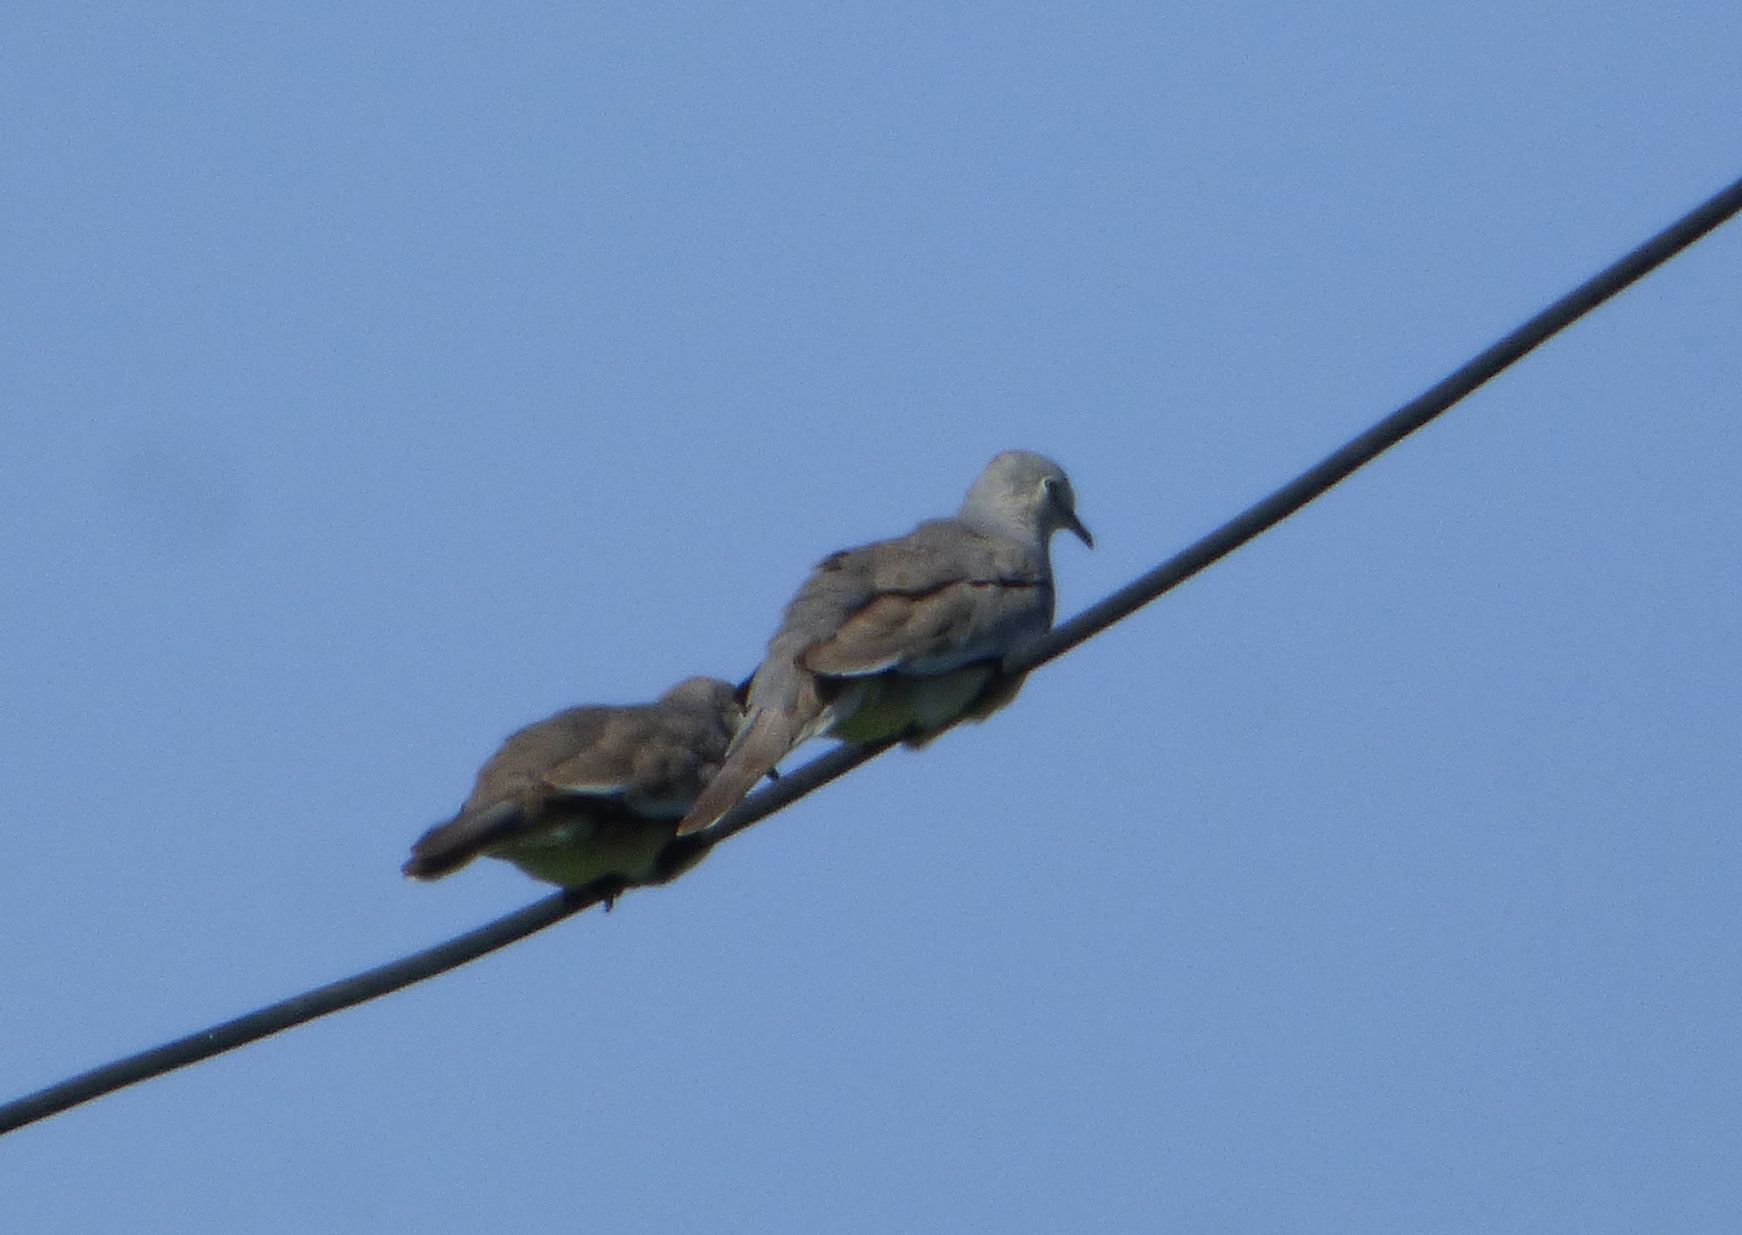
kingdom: Animalia
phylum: Chordata
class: Aves
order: Columbiformes
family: Columbidae
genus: Columbina
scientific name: Columbina picui
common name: Picui ground dove
